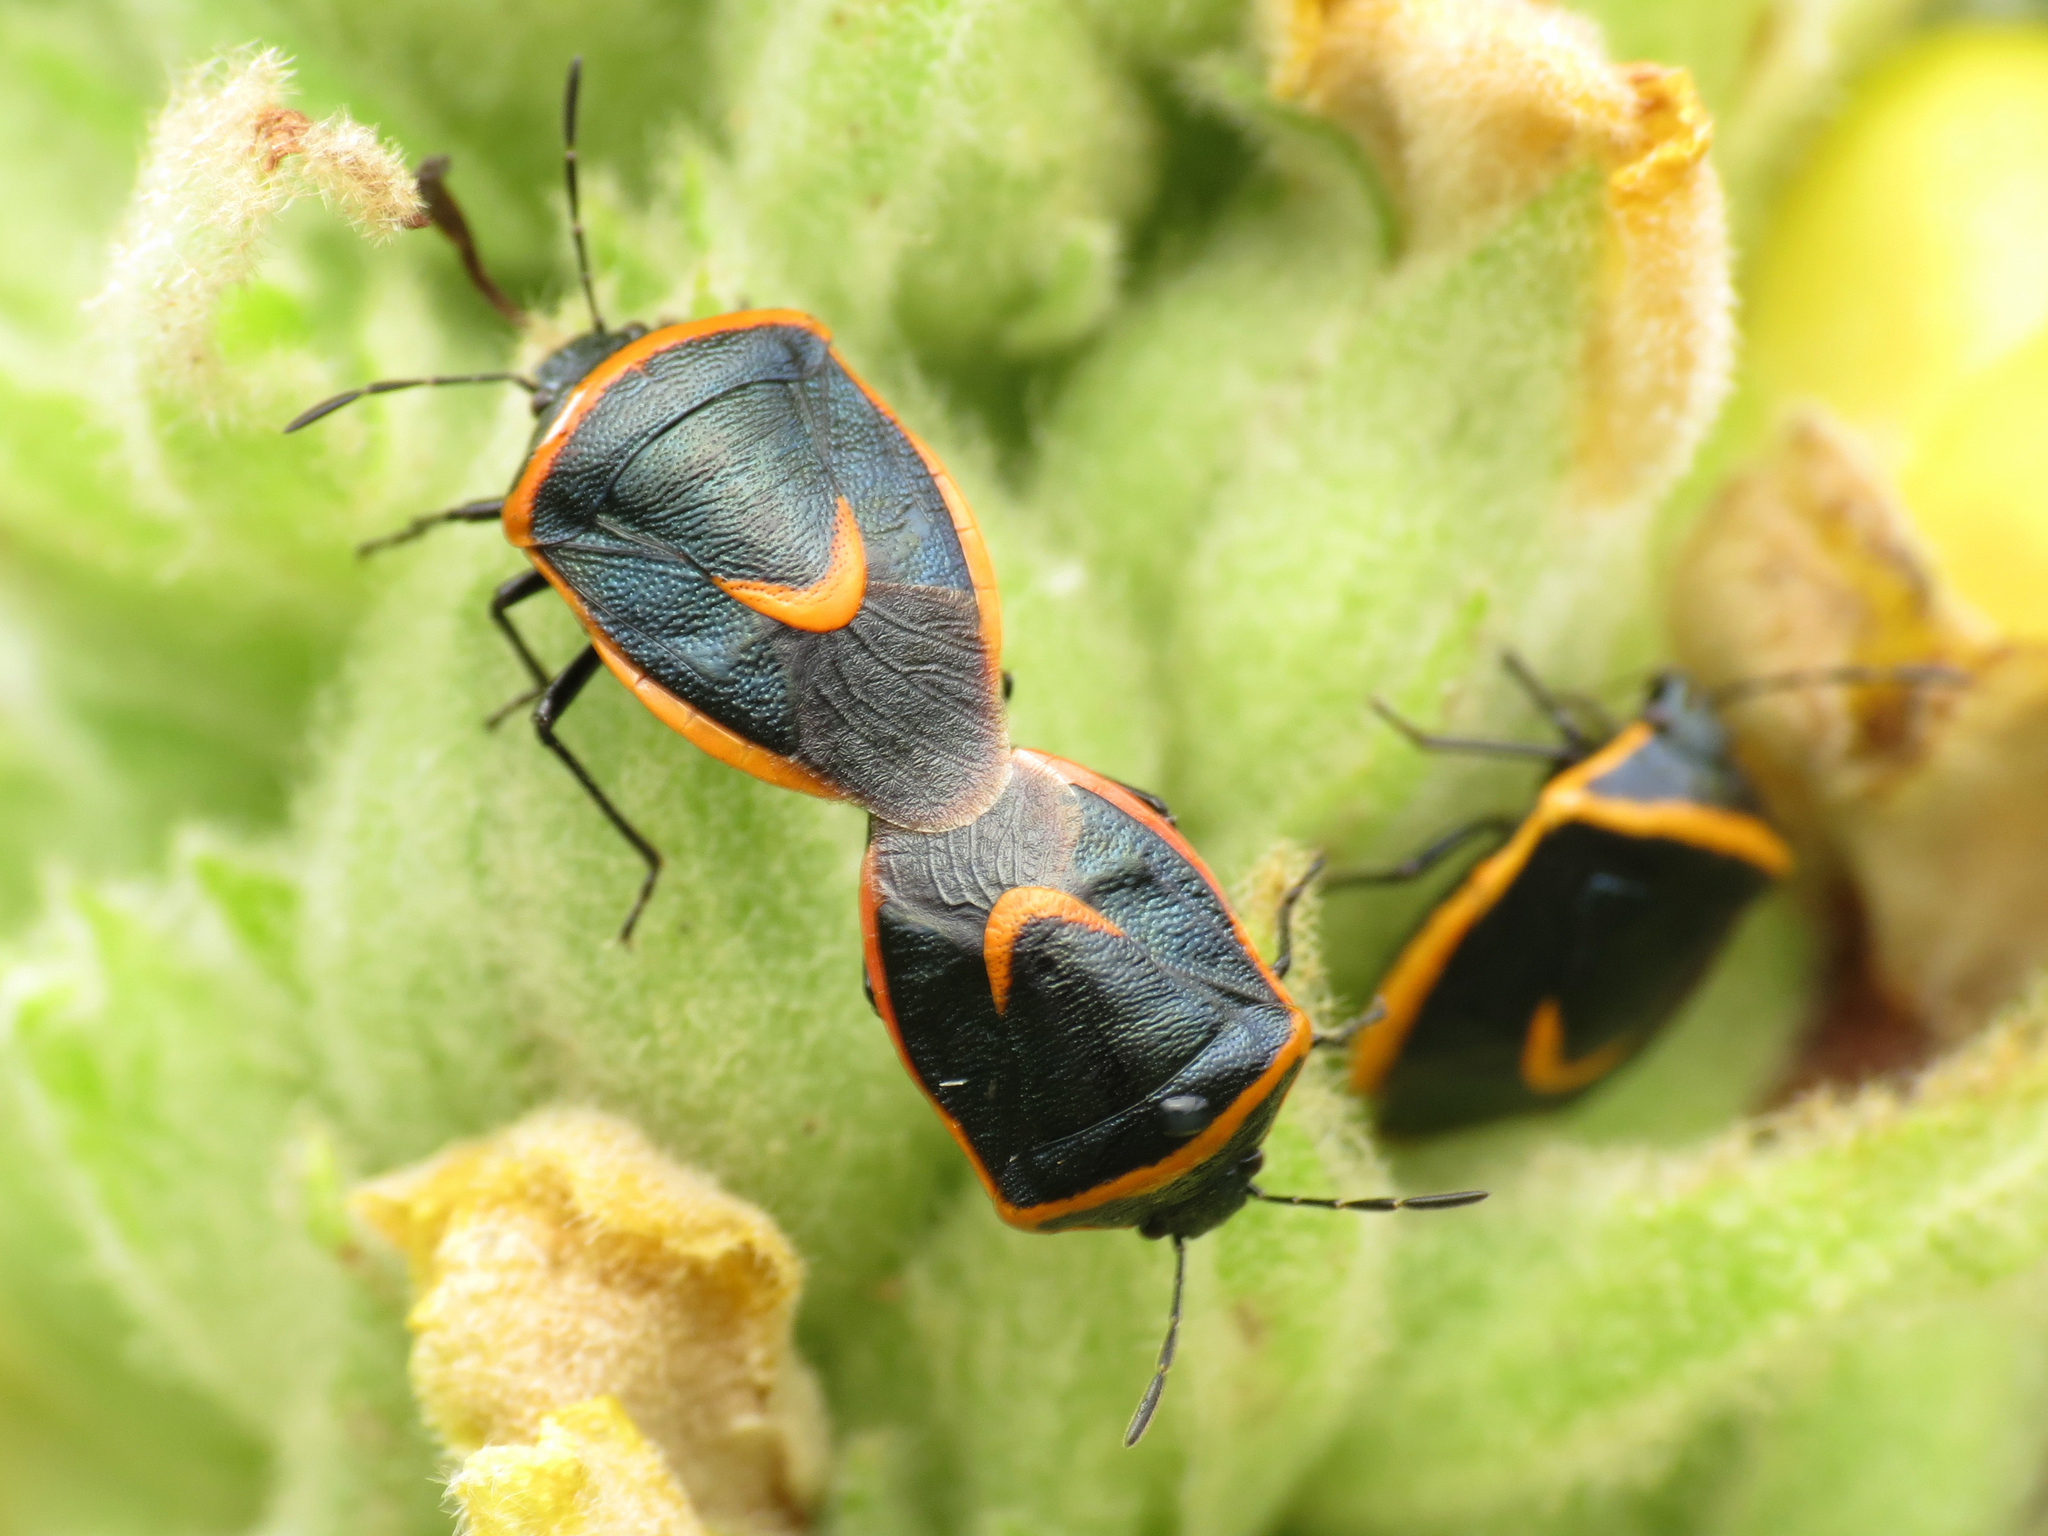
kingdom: Animalia
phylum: Arthropoda
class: Insecta
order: Hemiptera
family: Pentatomidae
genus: Cosmopepla
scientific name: Cosmopepla decorata
